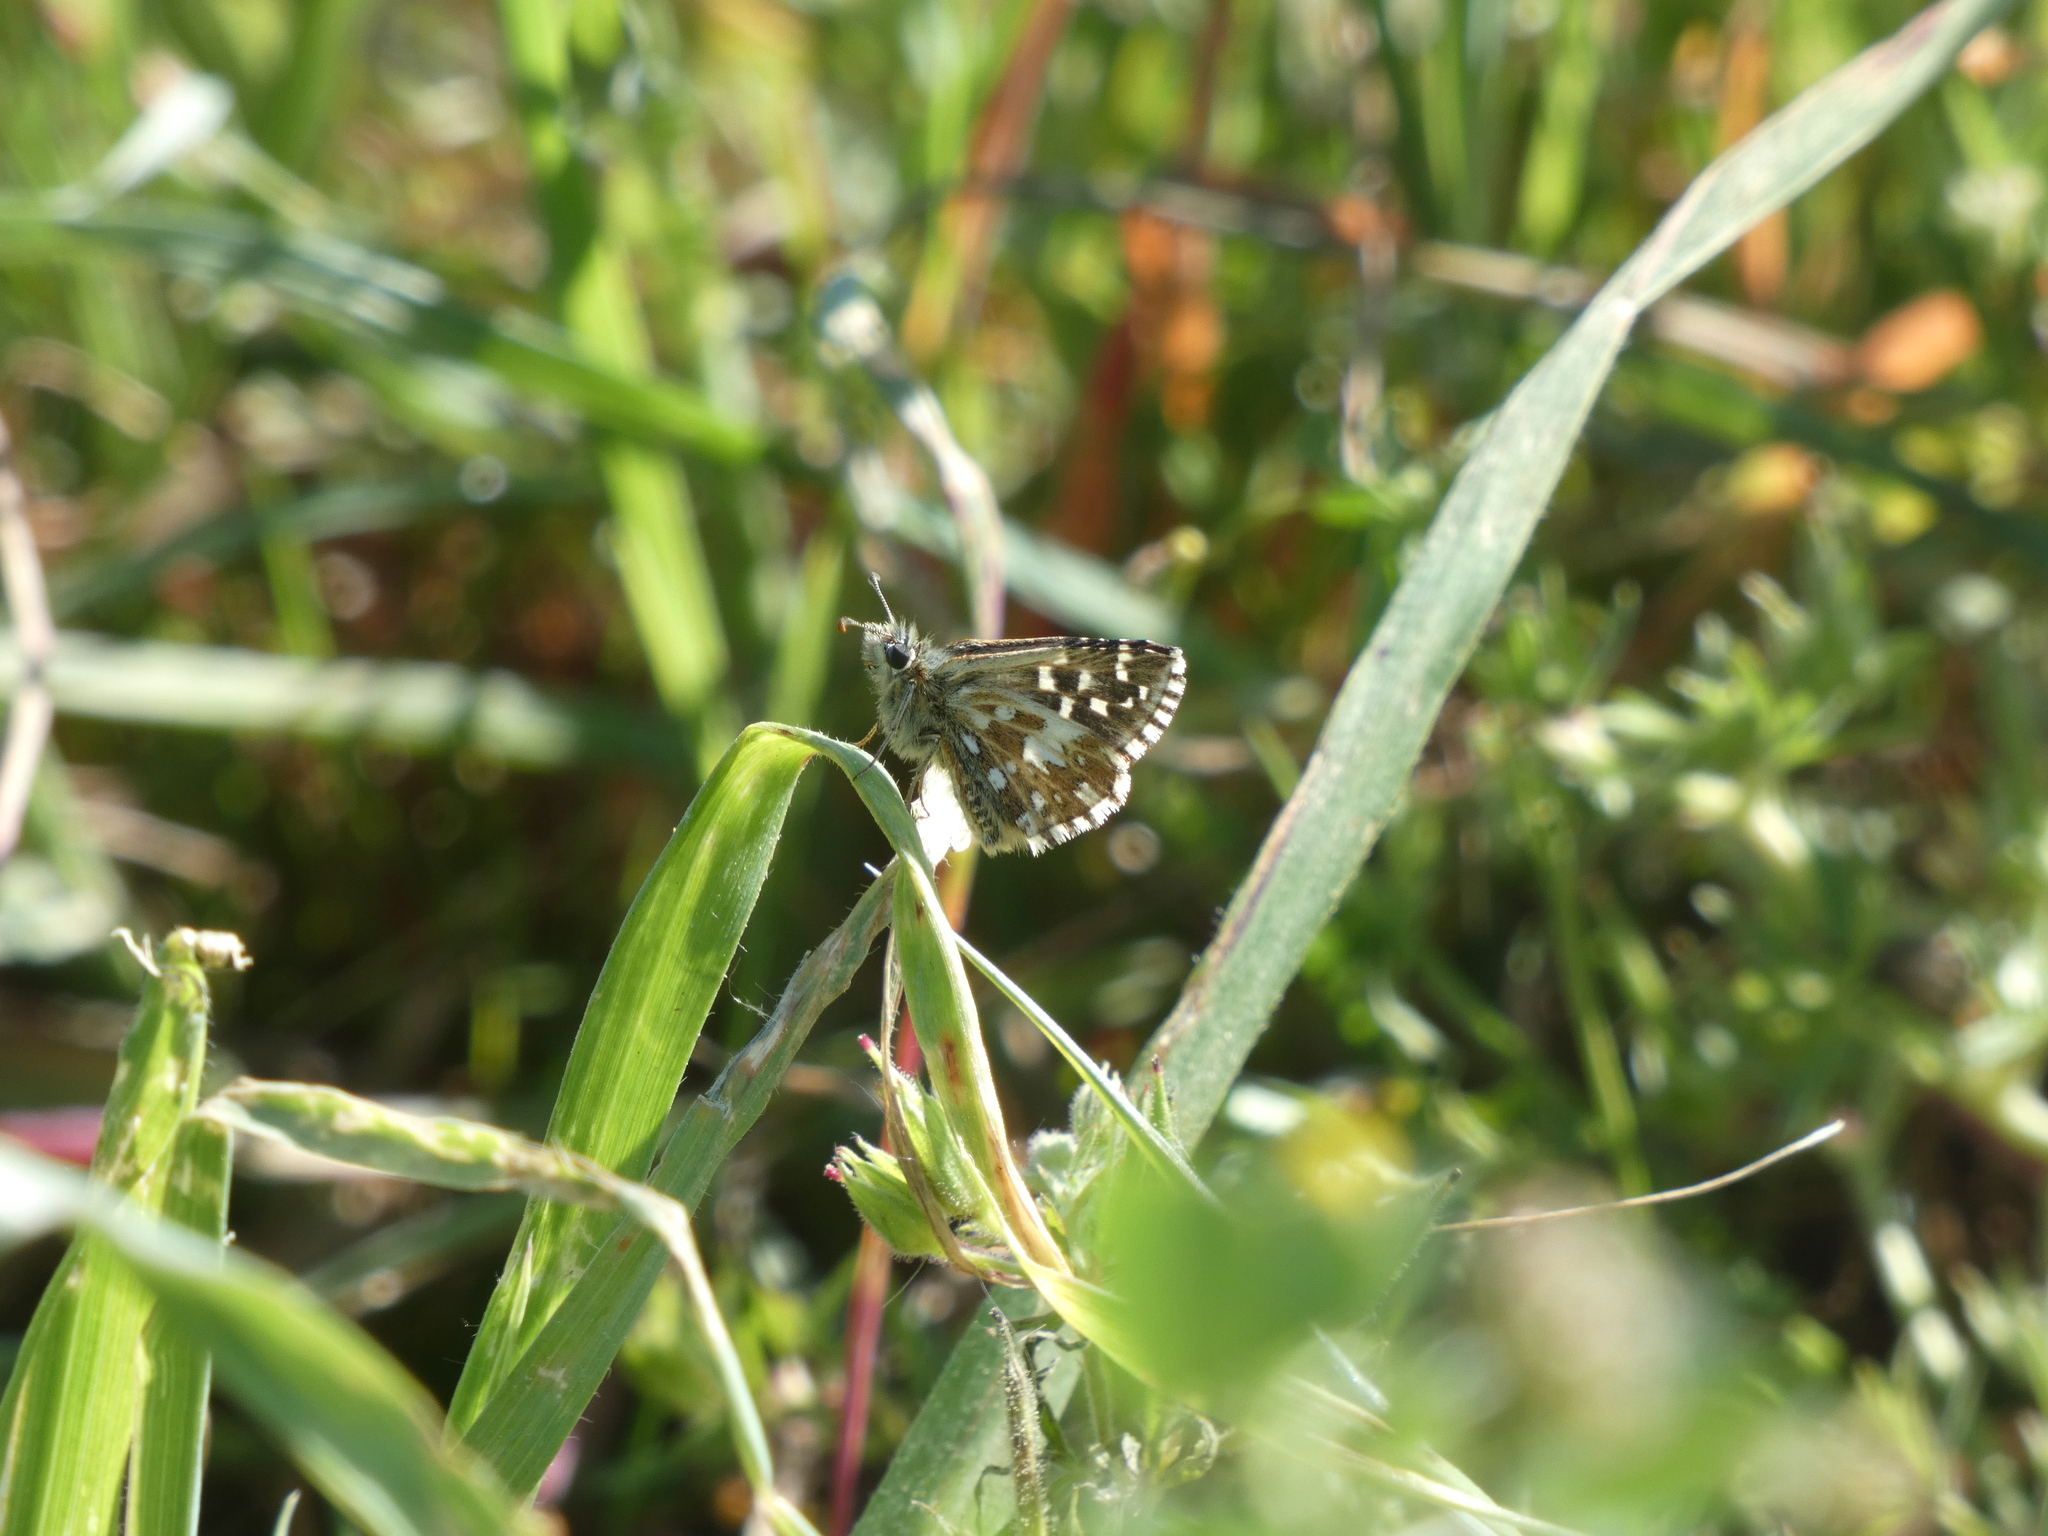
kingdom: Animalia
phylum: Arthropoda
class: Insecta
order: Lepidoptera
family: Hesperiidae
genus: Pyrgus
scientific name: Pyrgus malvoides
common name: Southern grizzled skipper
